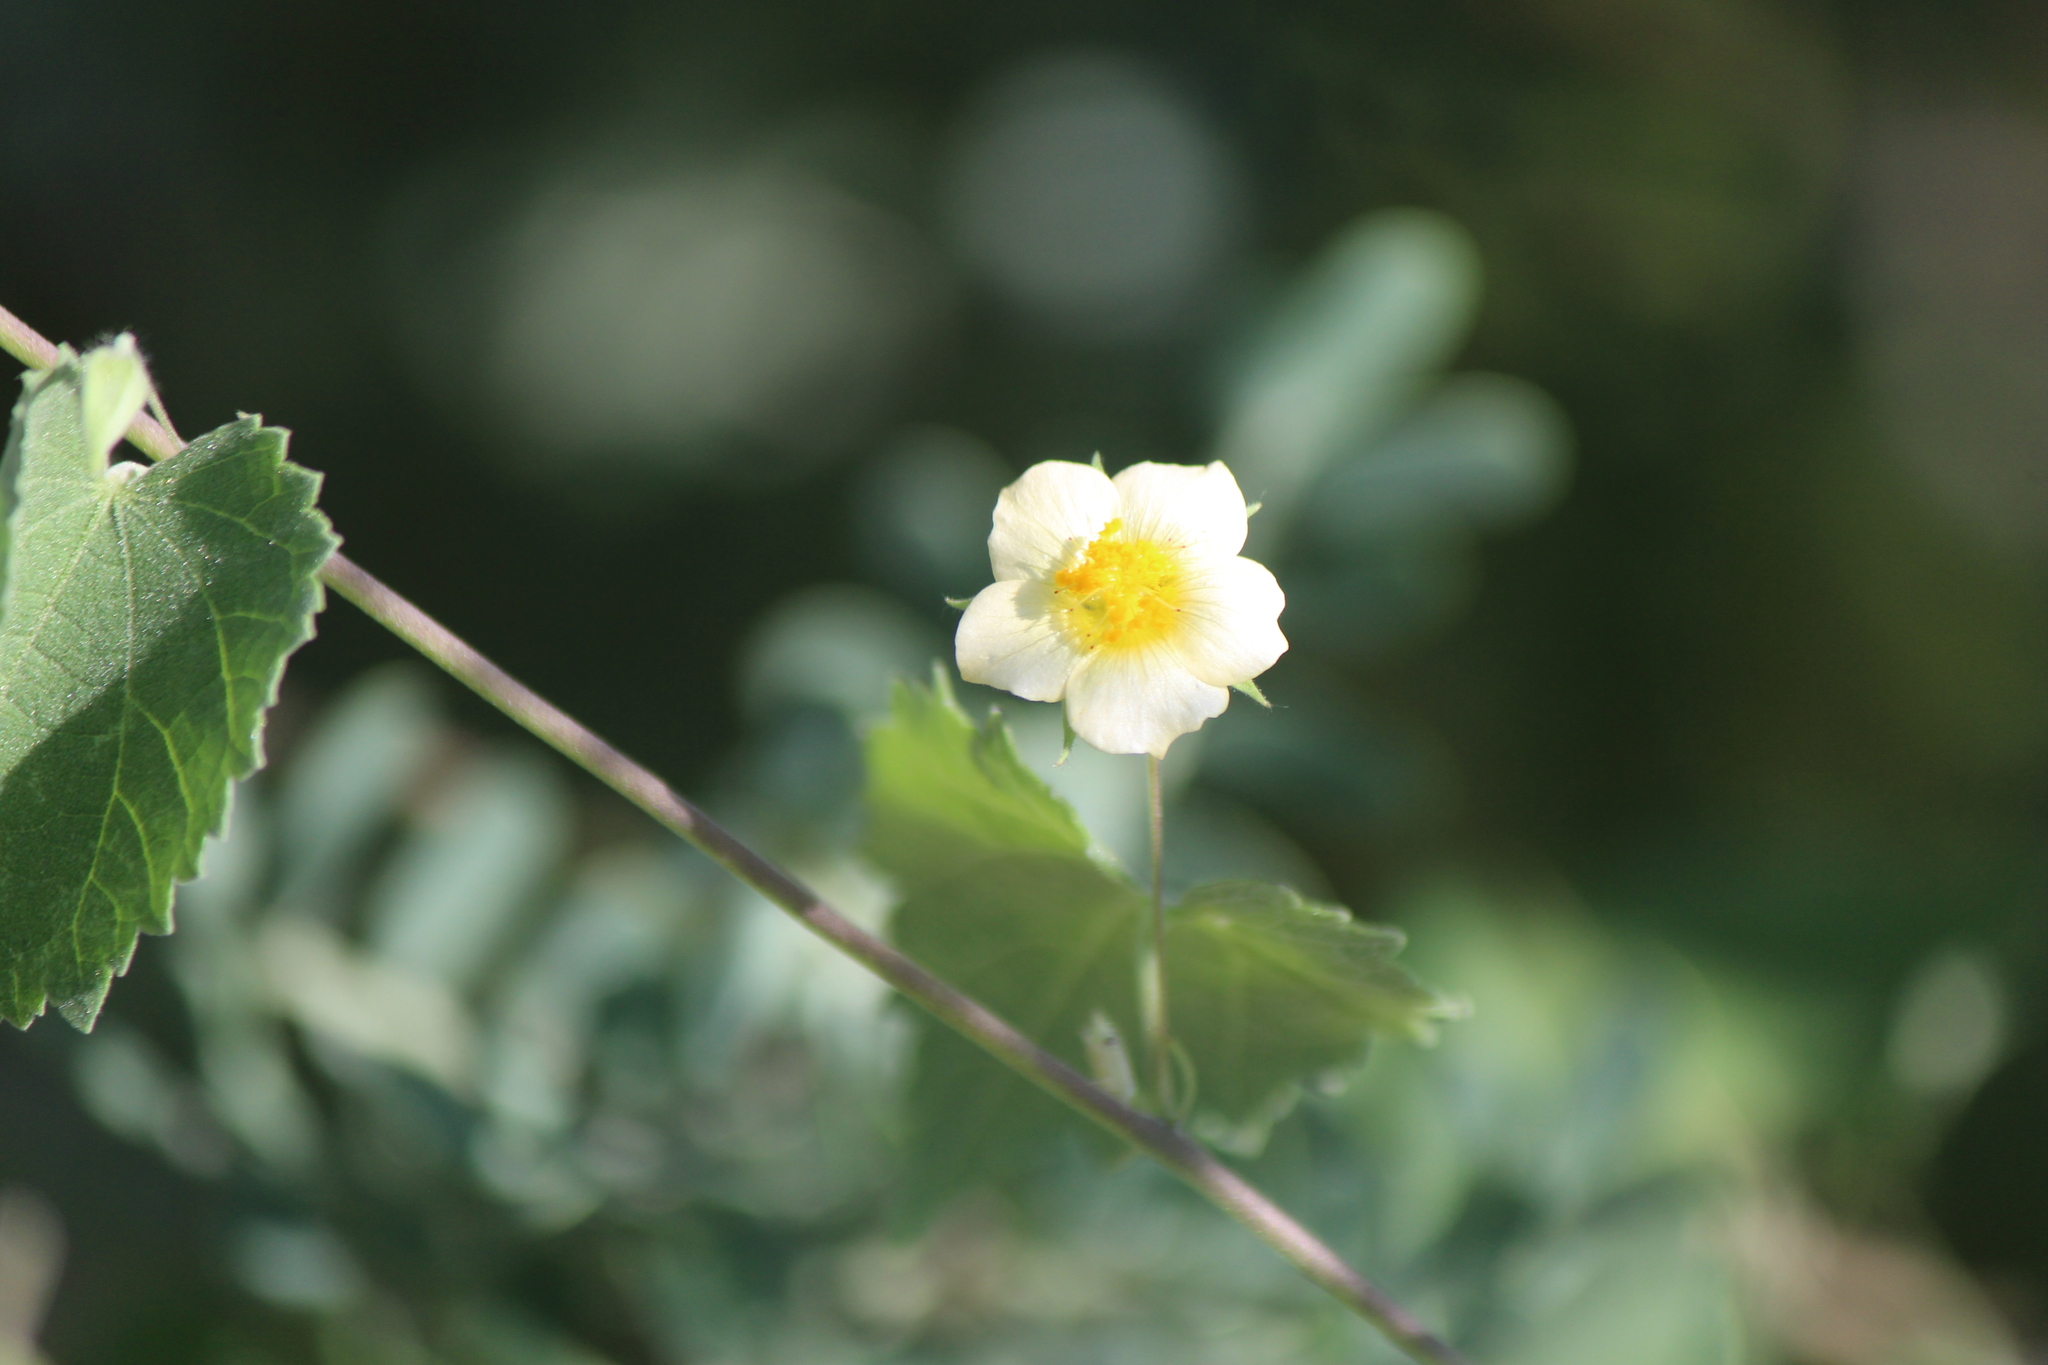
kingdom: Plantae
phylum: Tracheophyta
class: Magnoliopsida
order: Malvales
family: Malvaceae
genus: Herissantia
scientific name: Herissantia crispa
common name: Bladdermallow
